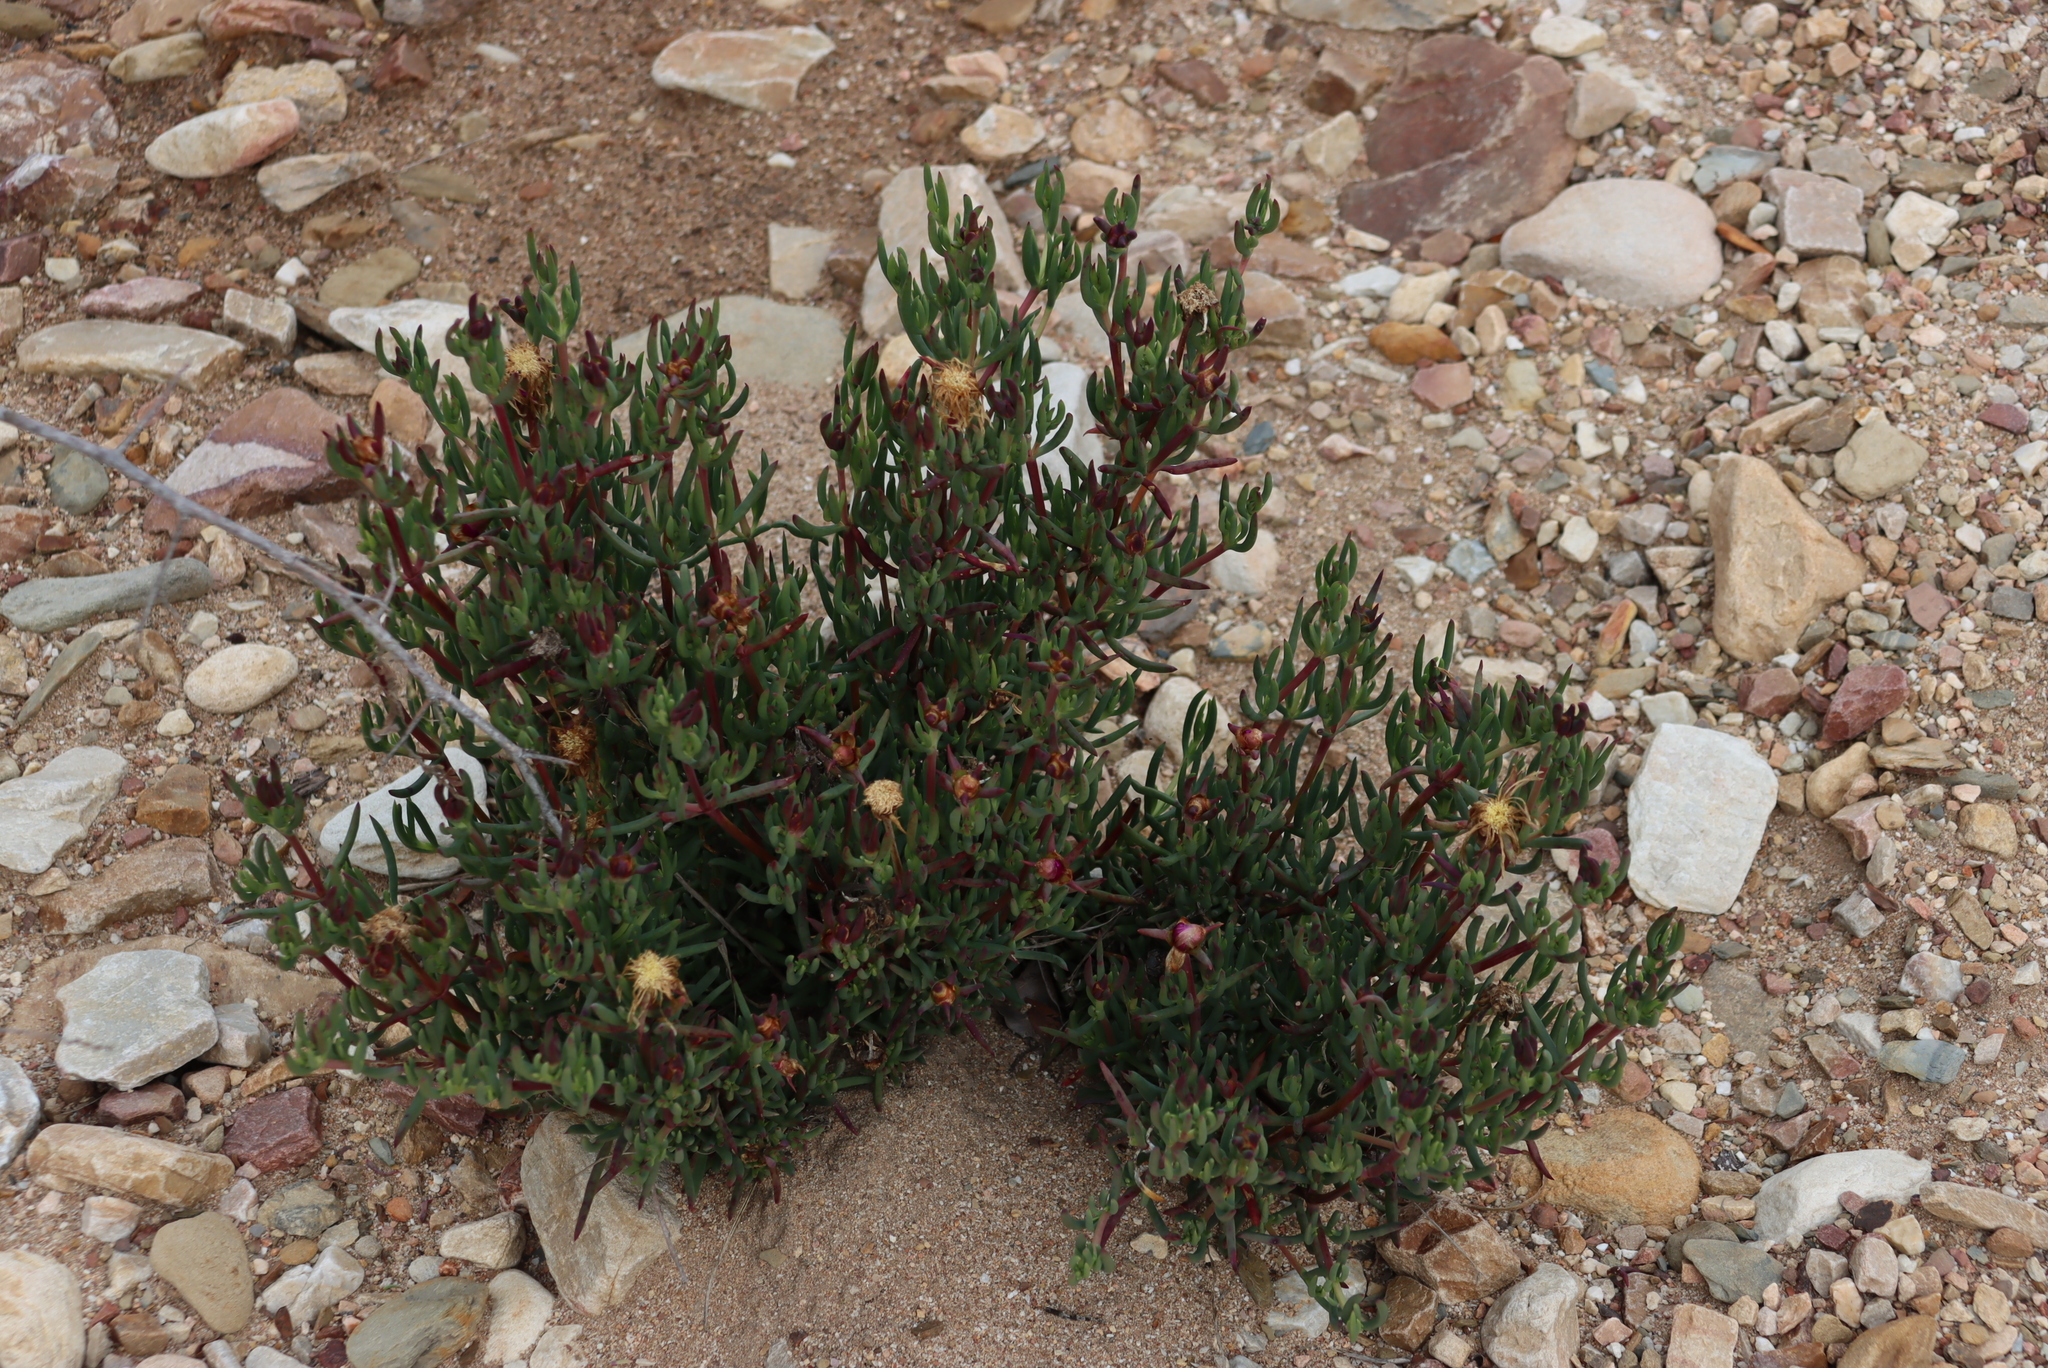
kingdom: Plantae
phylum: Tracheophyta
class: Magnoliopsida
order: Caryophyllales
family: Aizoaceae
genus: Lampranthus
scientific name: Lampranthus stayneri
